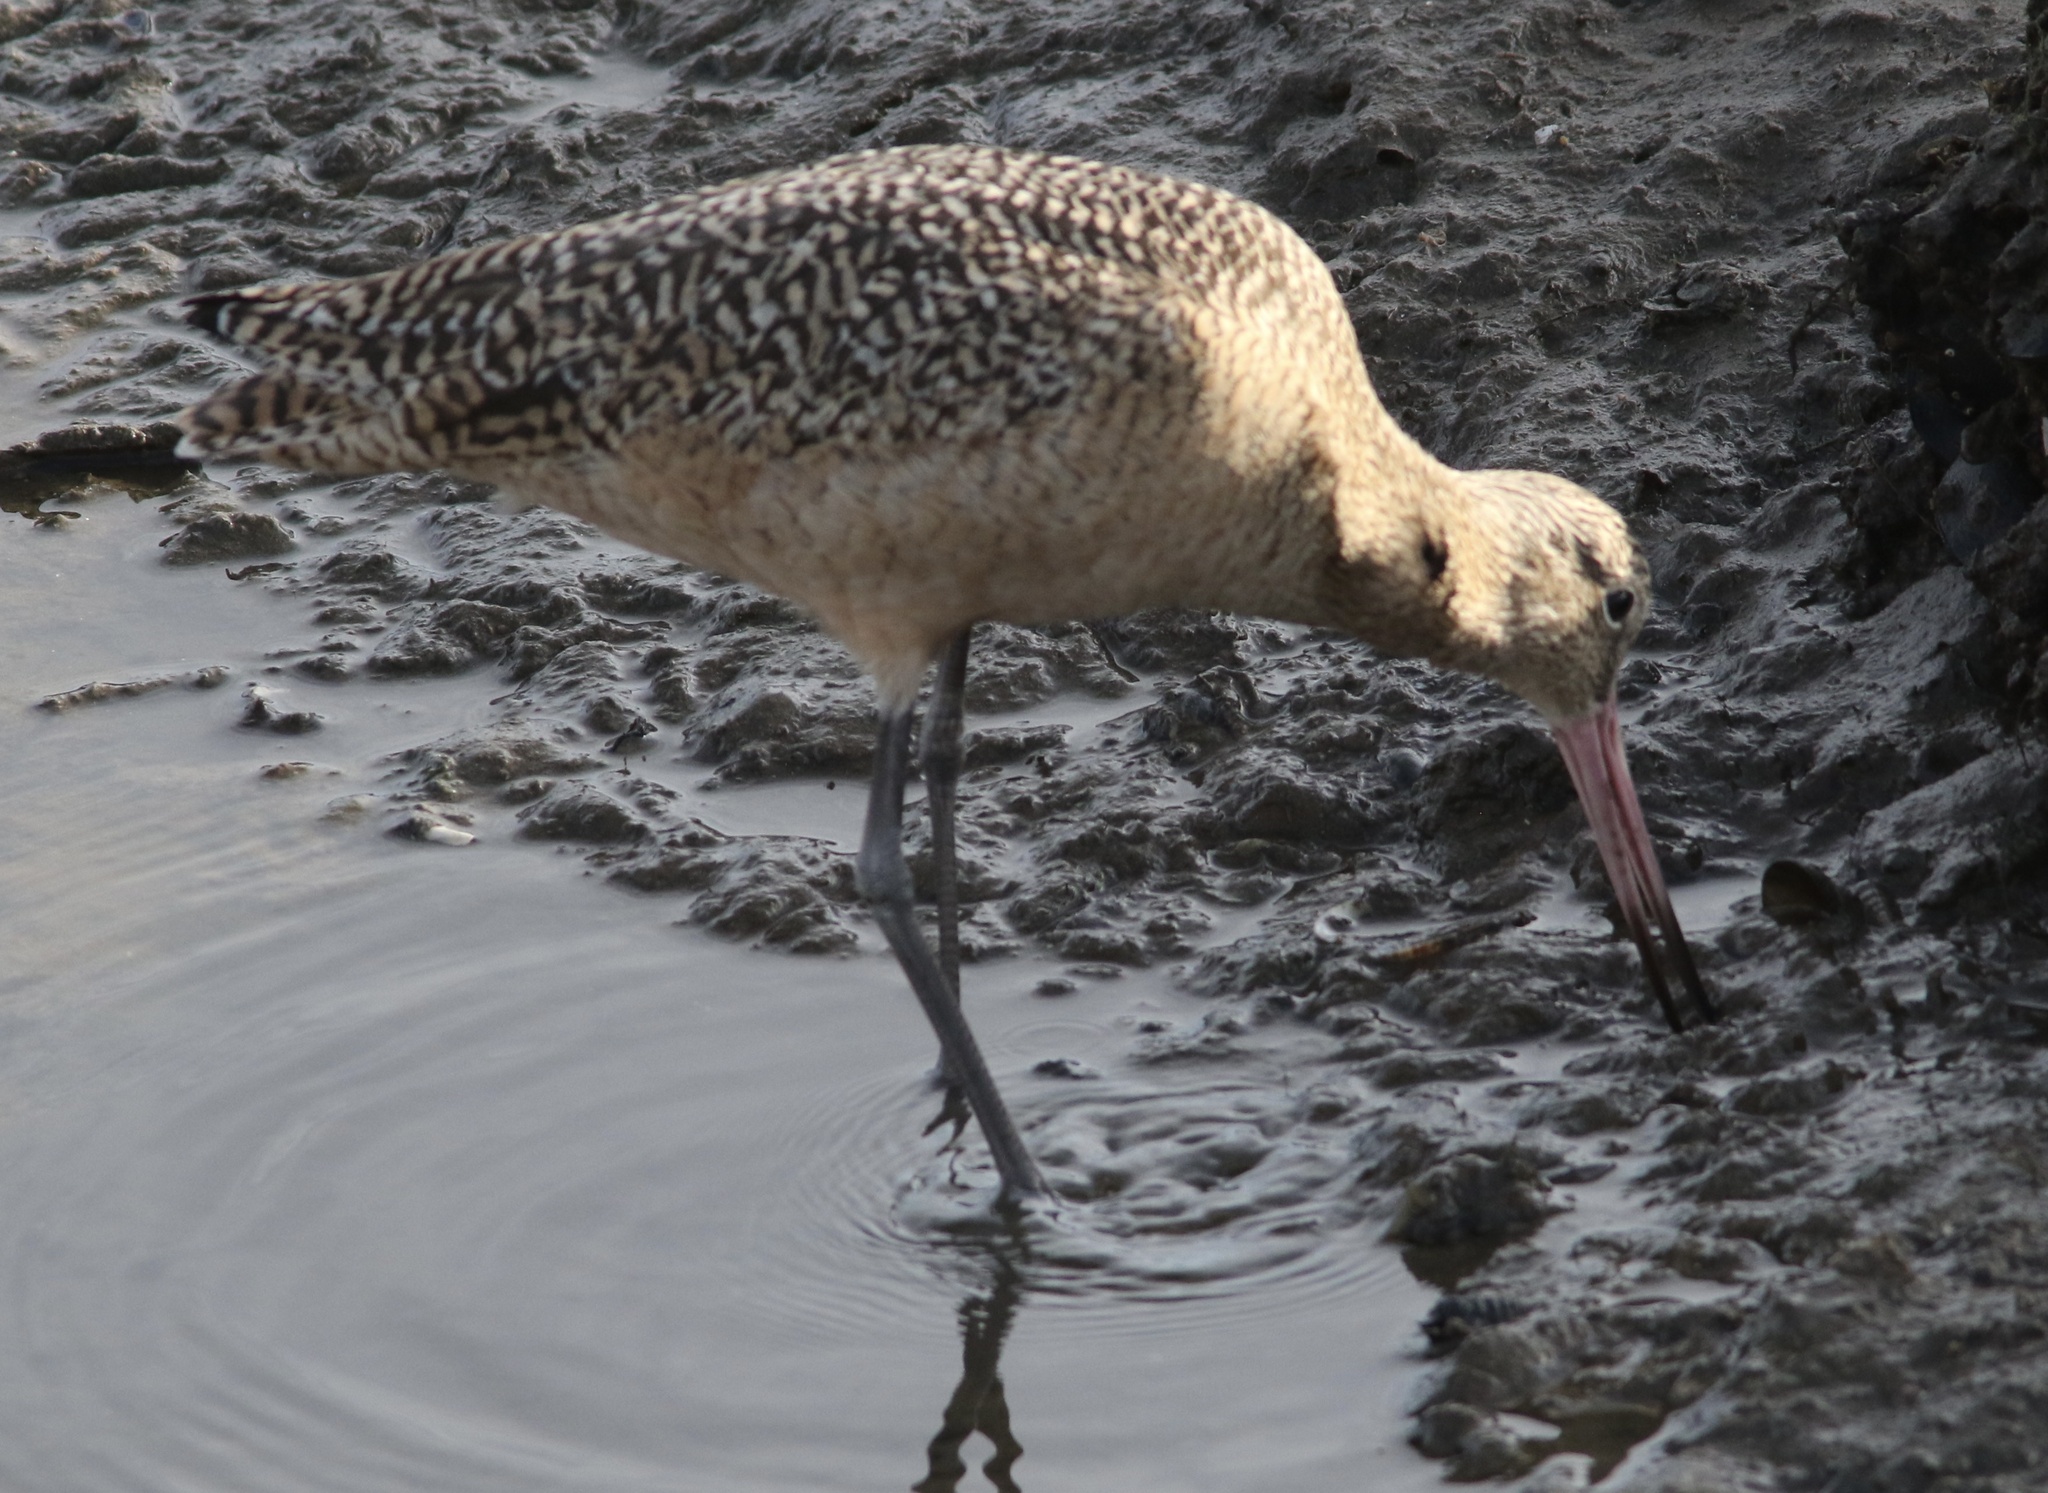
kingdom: Animalia
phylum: Chordata
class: Aves
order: Charadriiformes
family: Scolopacidae
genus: Limosa
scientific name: Limosa fedoa
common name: Marbled godwit
